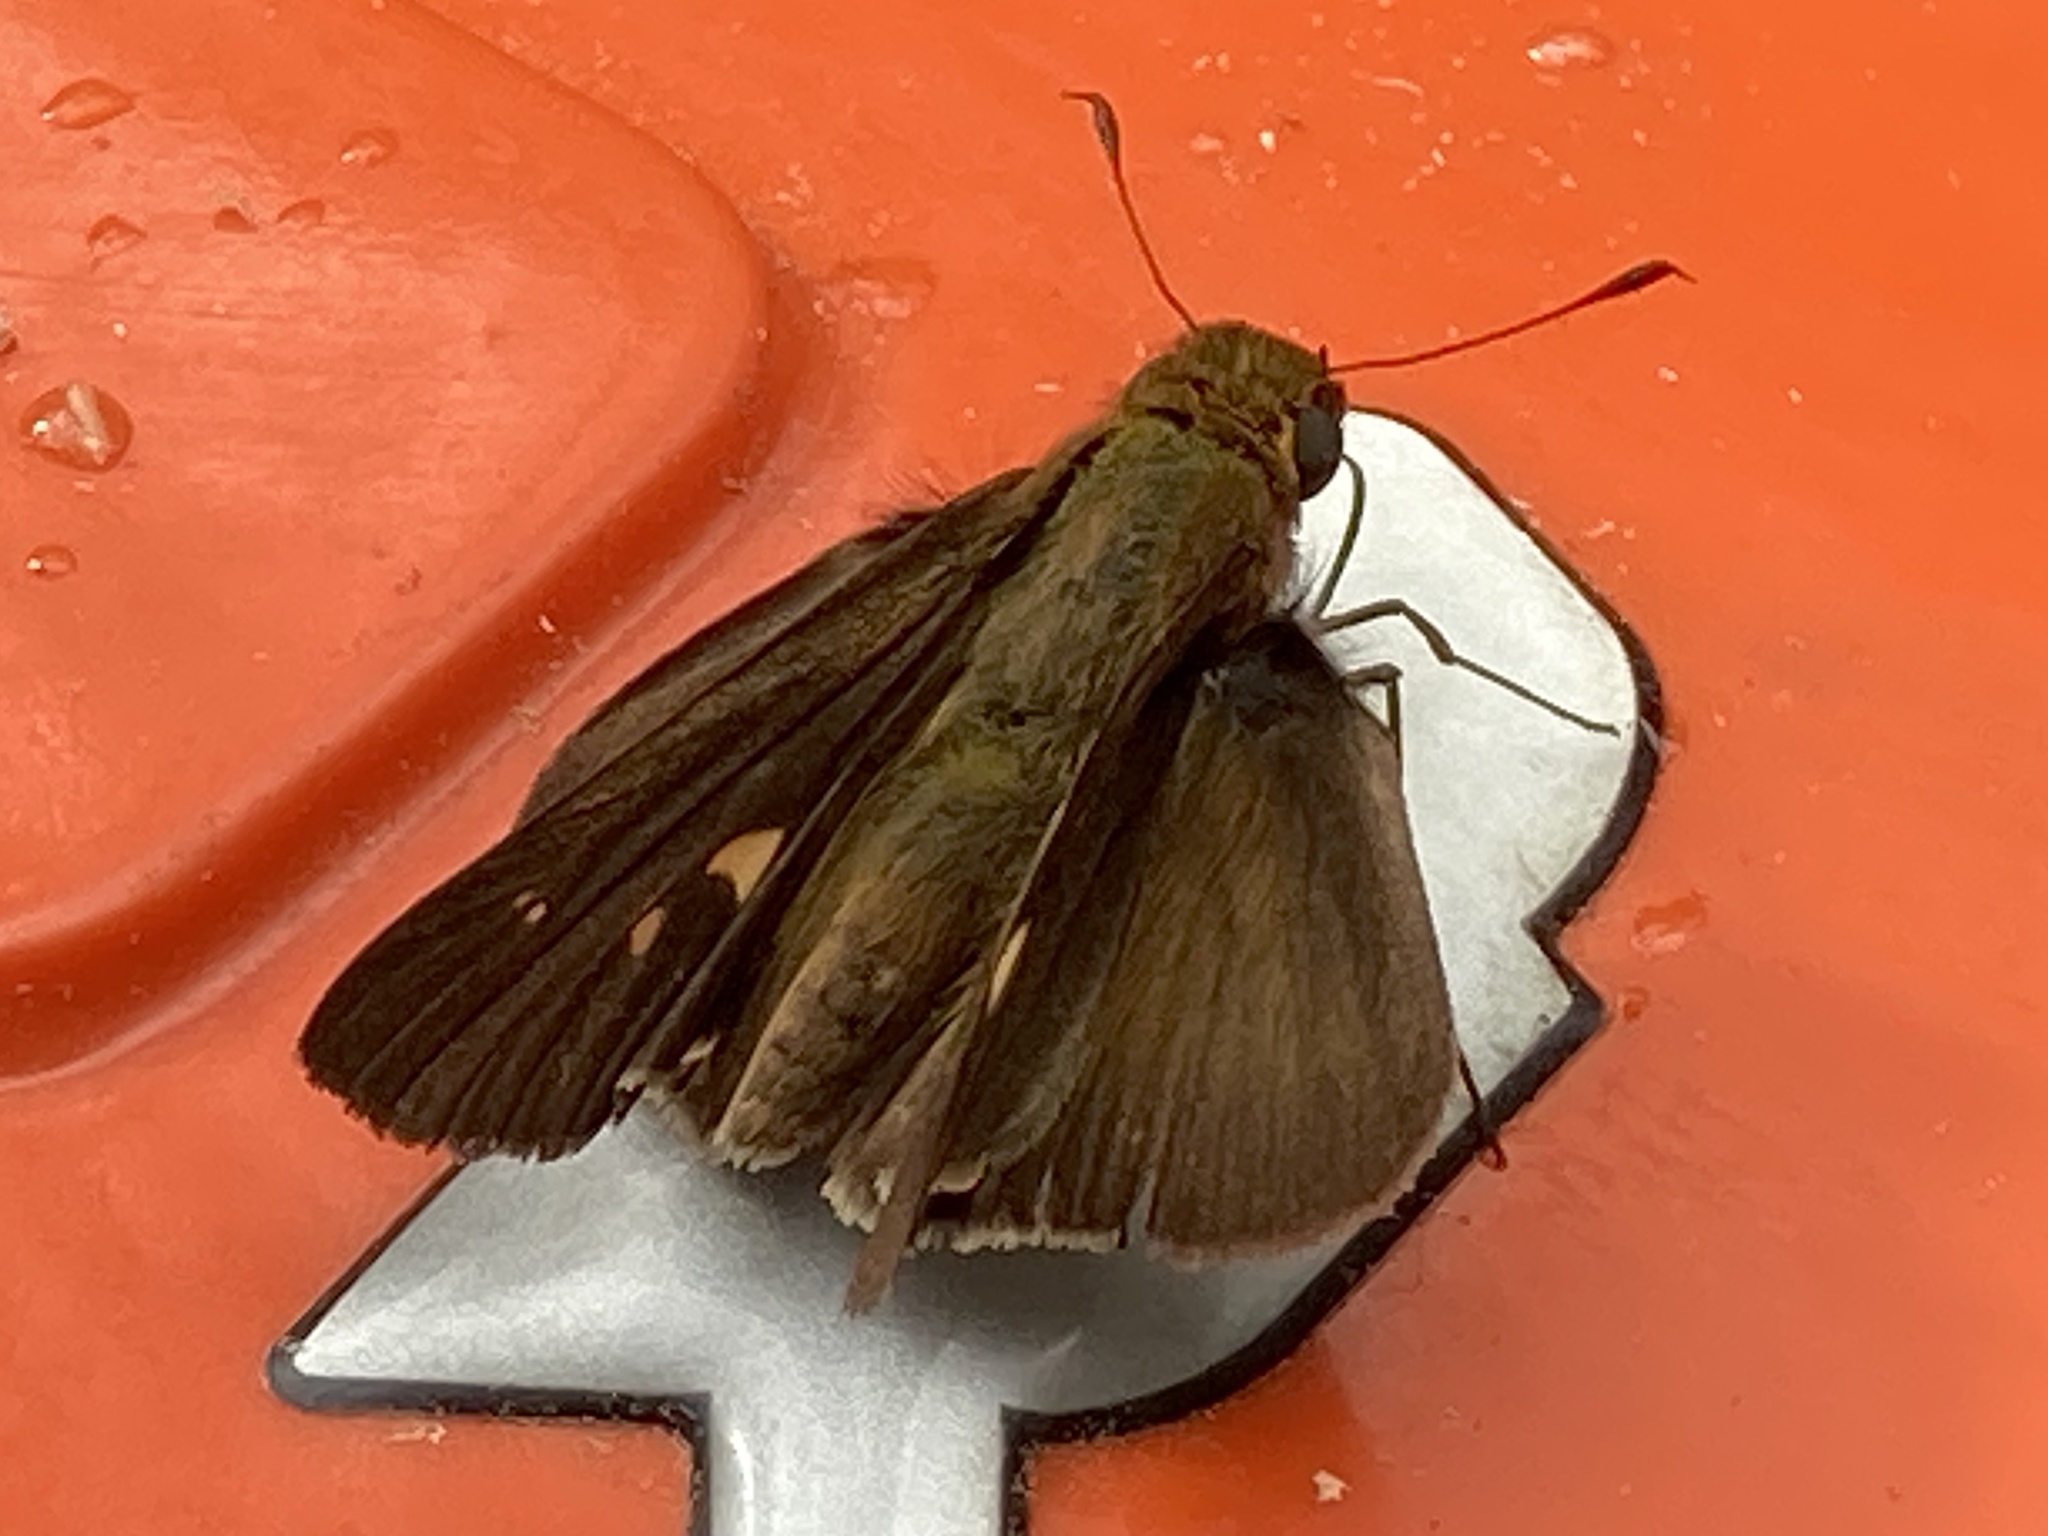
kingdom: Animalia
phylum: Arthropoda
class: Insecta
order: Lepidoptera
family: Hesperiidae
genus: Panoquina
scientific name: Panoquina ocola
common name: Ocola skipper
